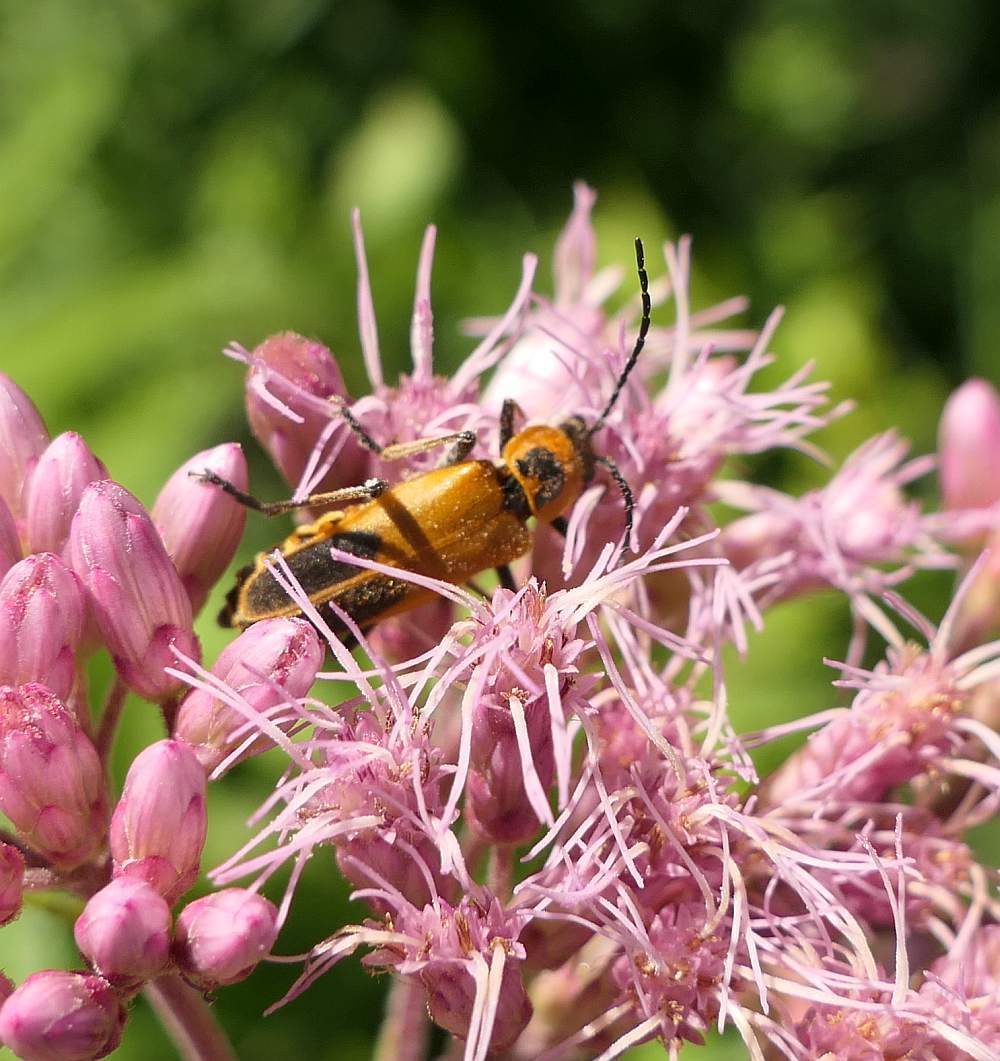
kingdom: Animalia
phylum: Arthropoda
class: Insecta
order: Coleoptera
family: Cantharidae
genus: Chauliognathus
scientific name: Chauliognathus pensylvanicus
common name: Goldenrod soldier beetle
